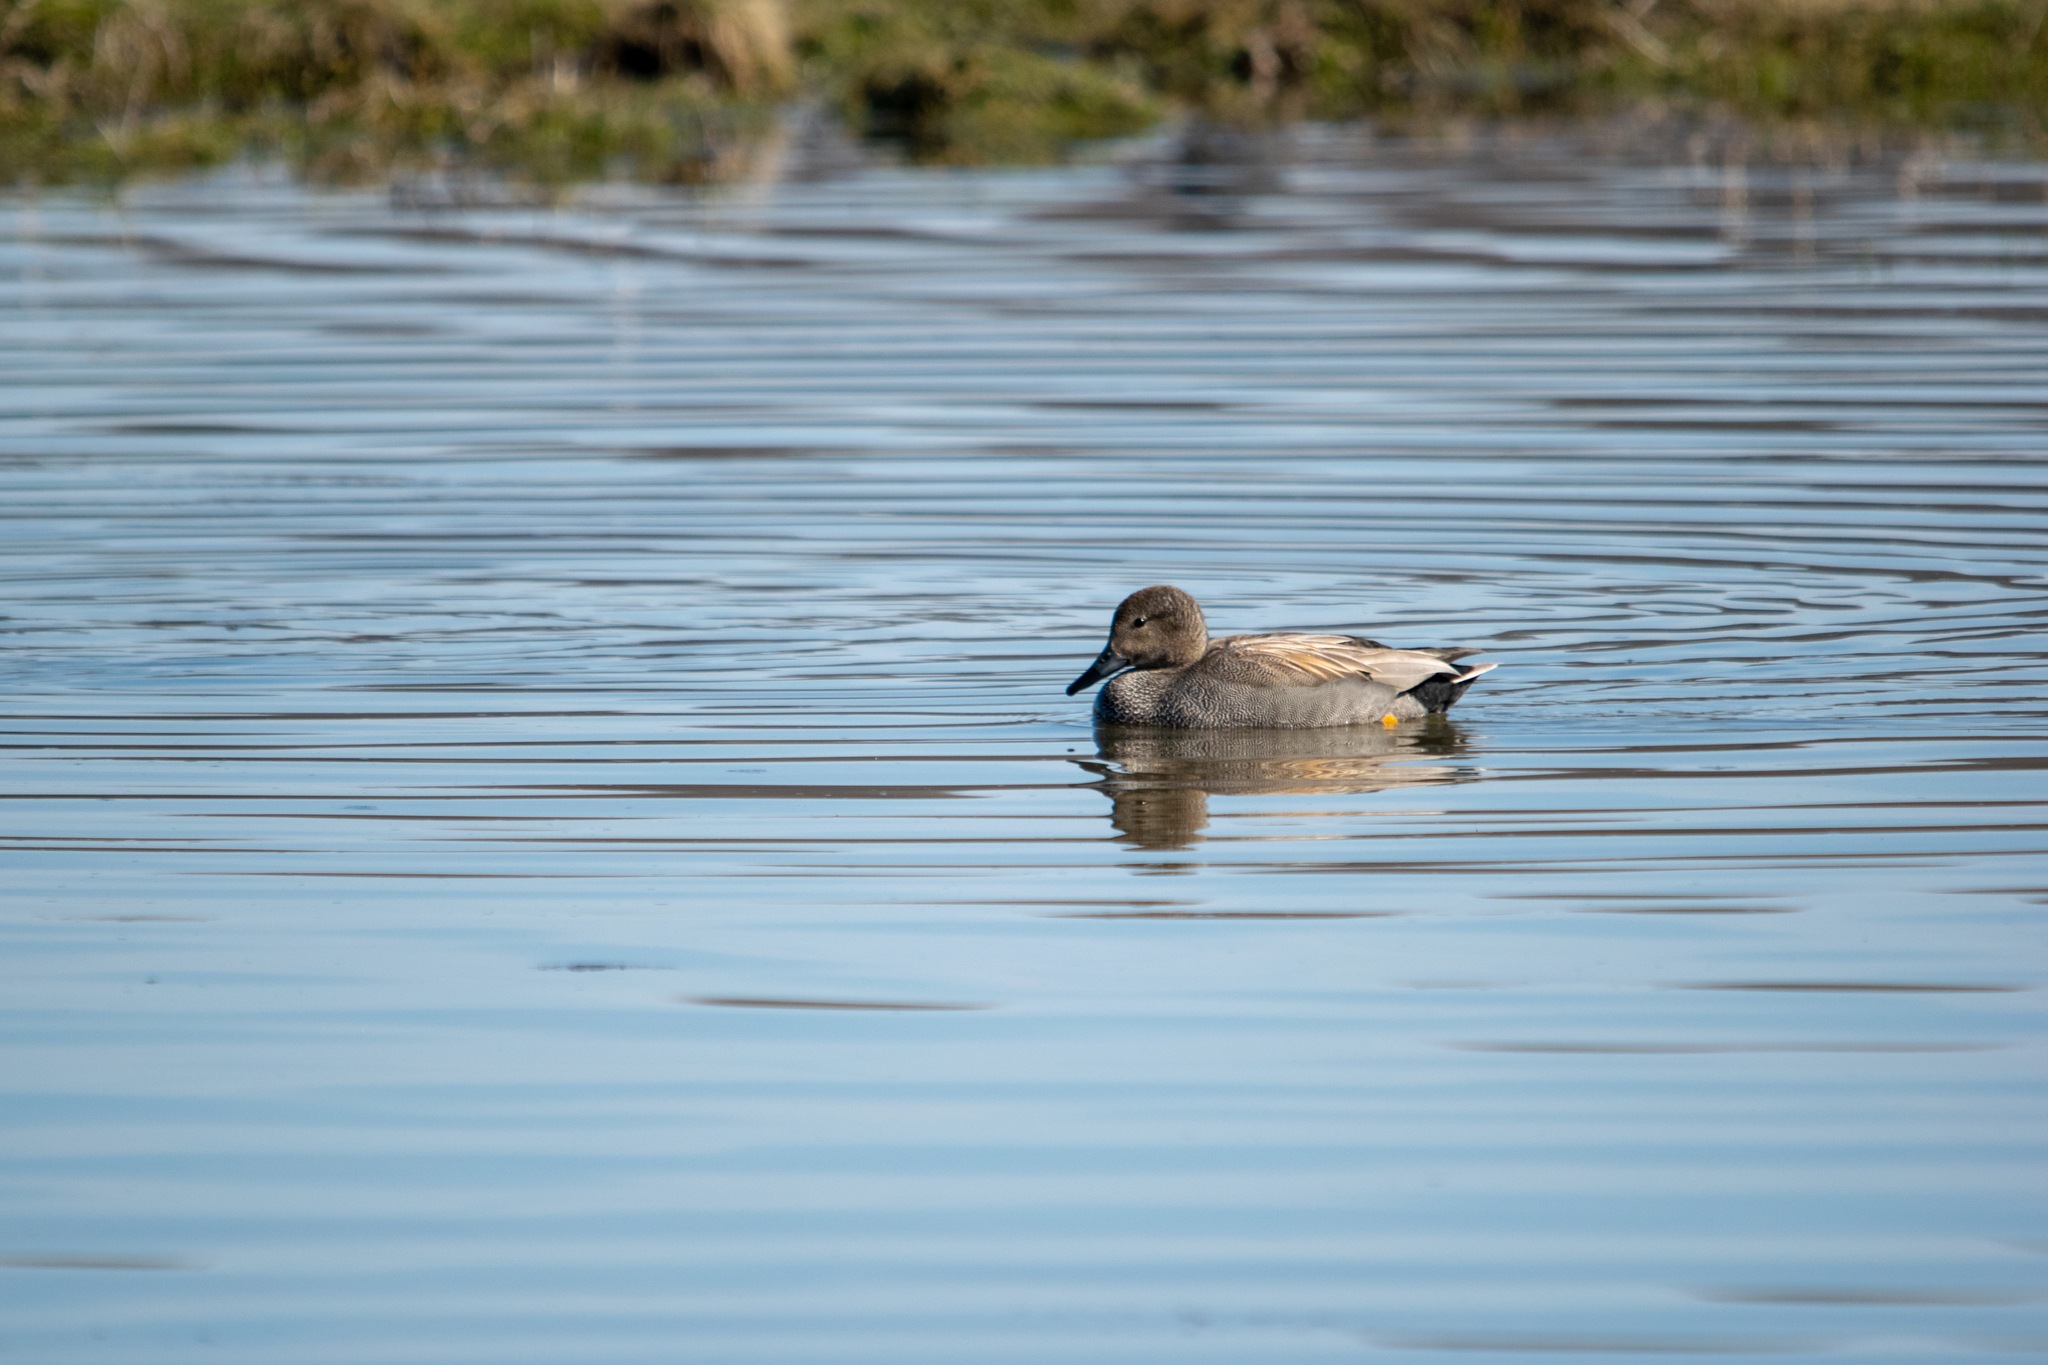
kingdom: Animalia
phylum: Chordata
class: Aves
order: Anseriformes
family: Anatidae
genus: Mareca
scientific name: Mareca strepera
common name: Gadwall
